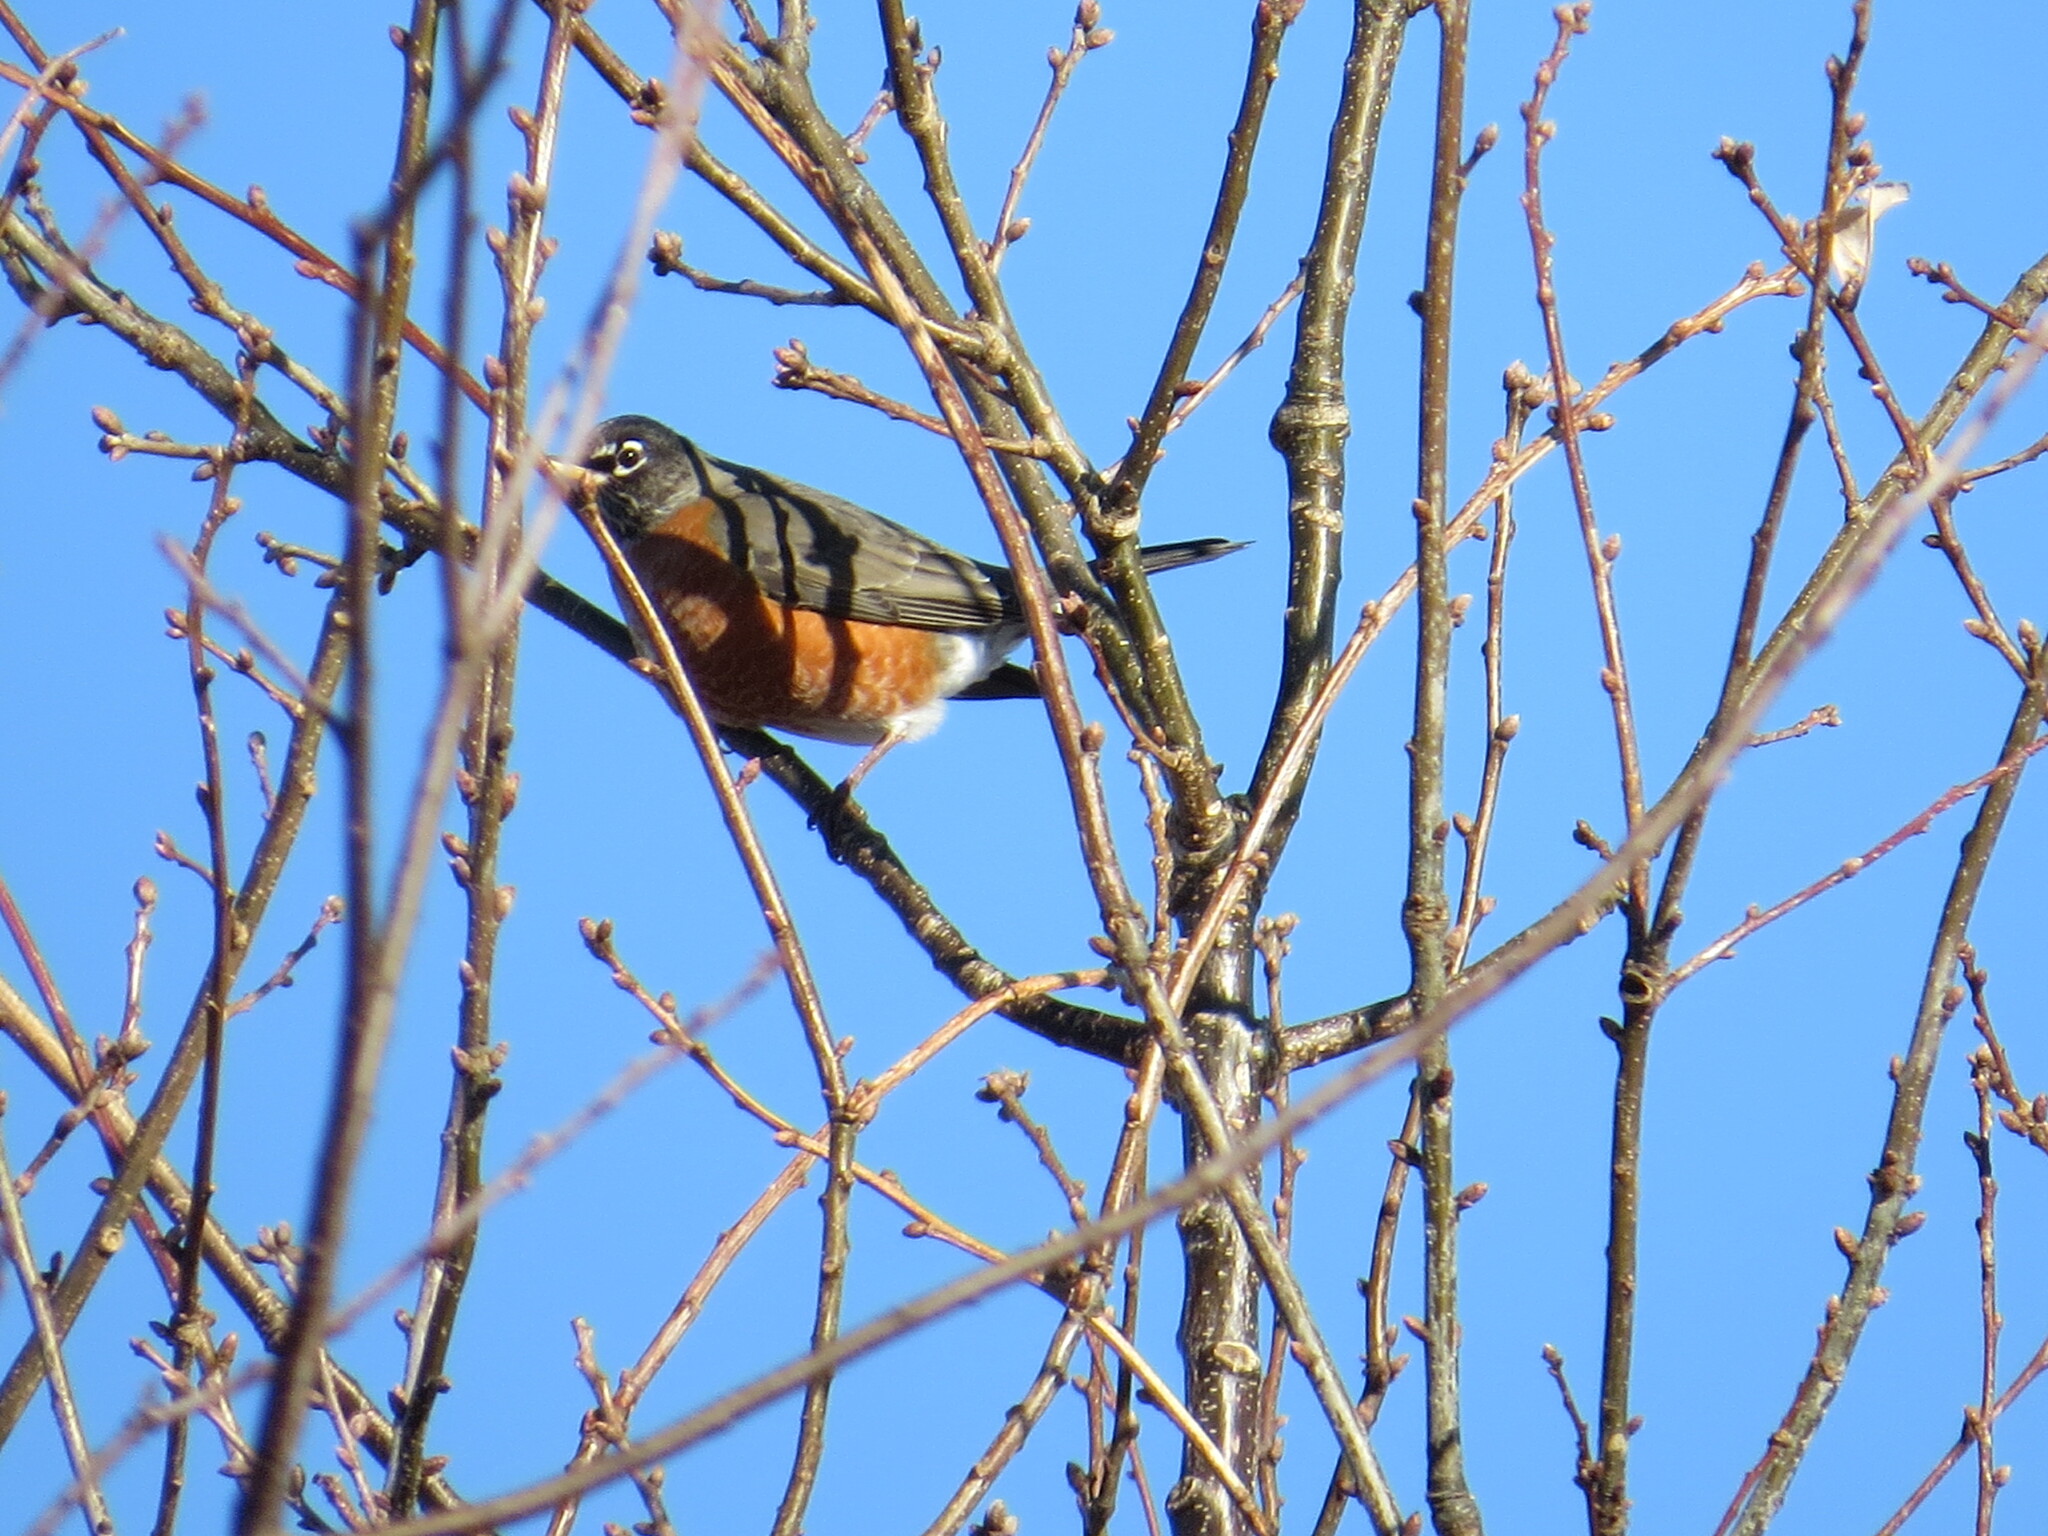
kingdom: Animalia
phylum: Chordata
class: Aves
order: Passeriformes
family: Turdidae
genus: Turdus
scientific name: Turdus migratorius
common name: American robin
